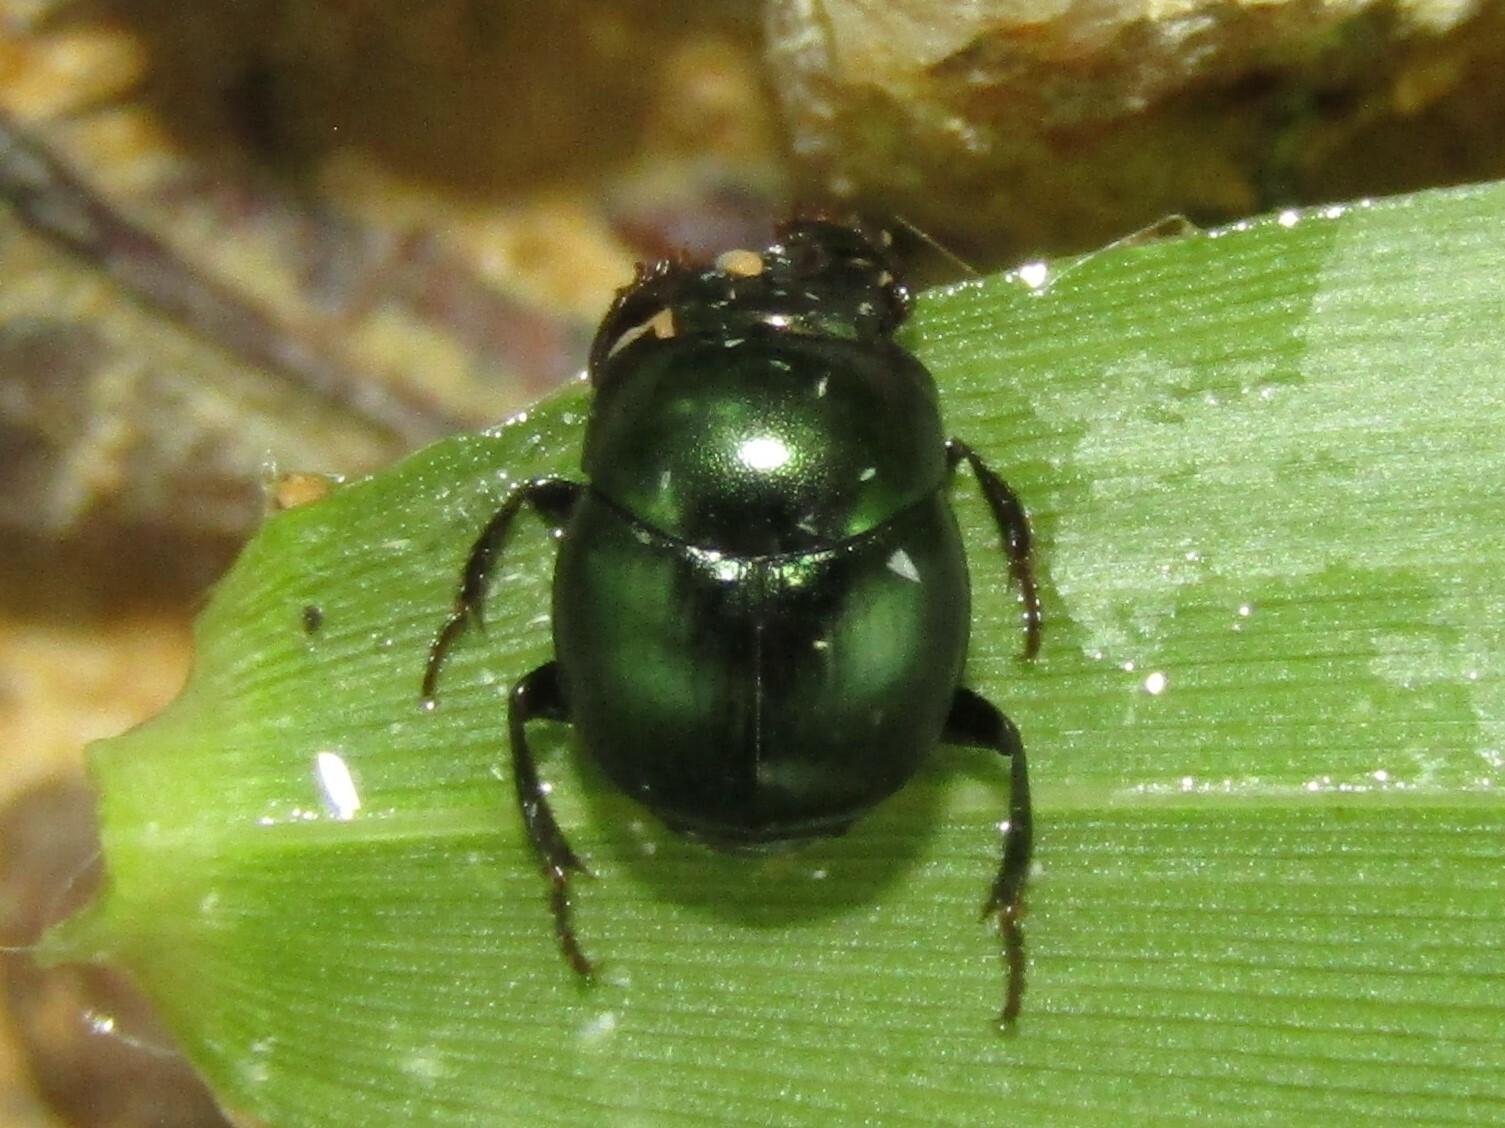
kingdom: Animalia
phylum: Arthropoda
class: Insecta
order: Coleoptera
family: Scarabaeidae
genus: Canthon
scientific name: Canthon viridis
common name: Tumblebug
